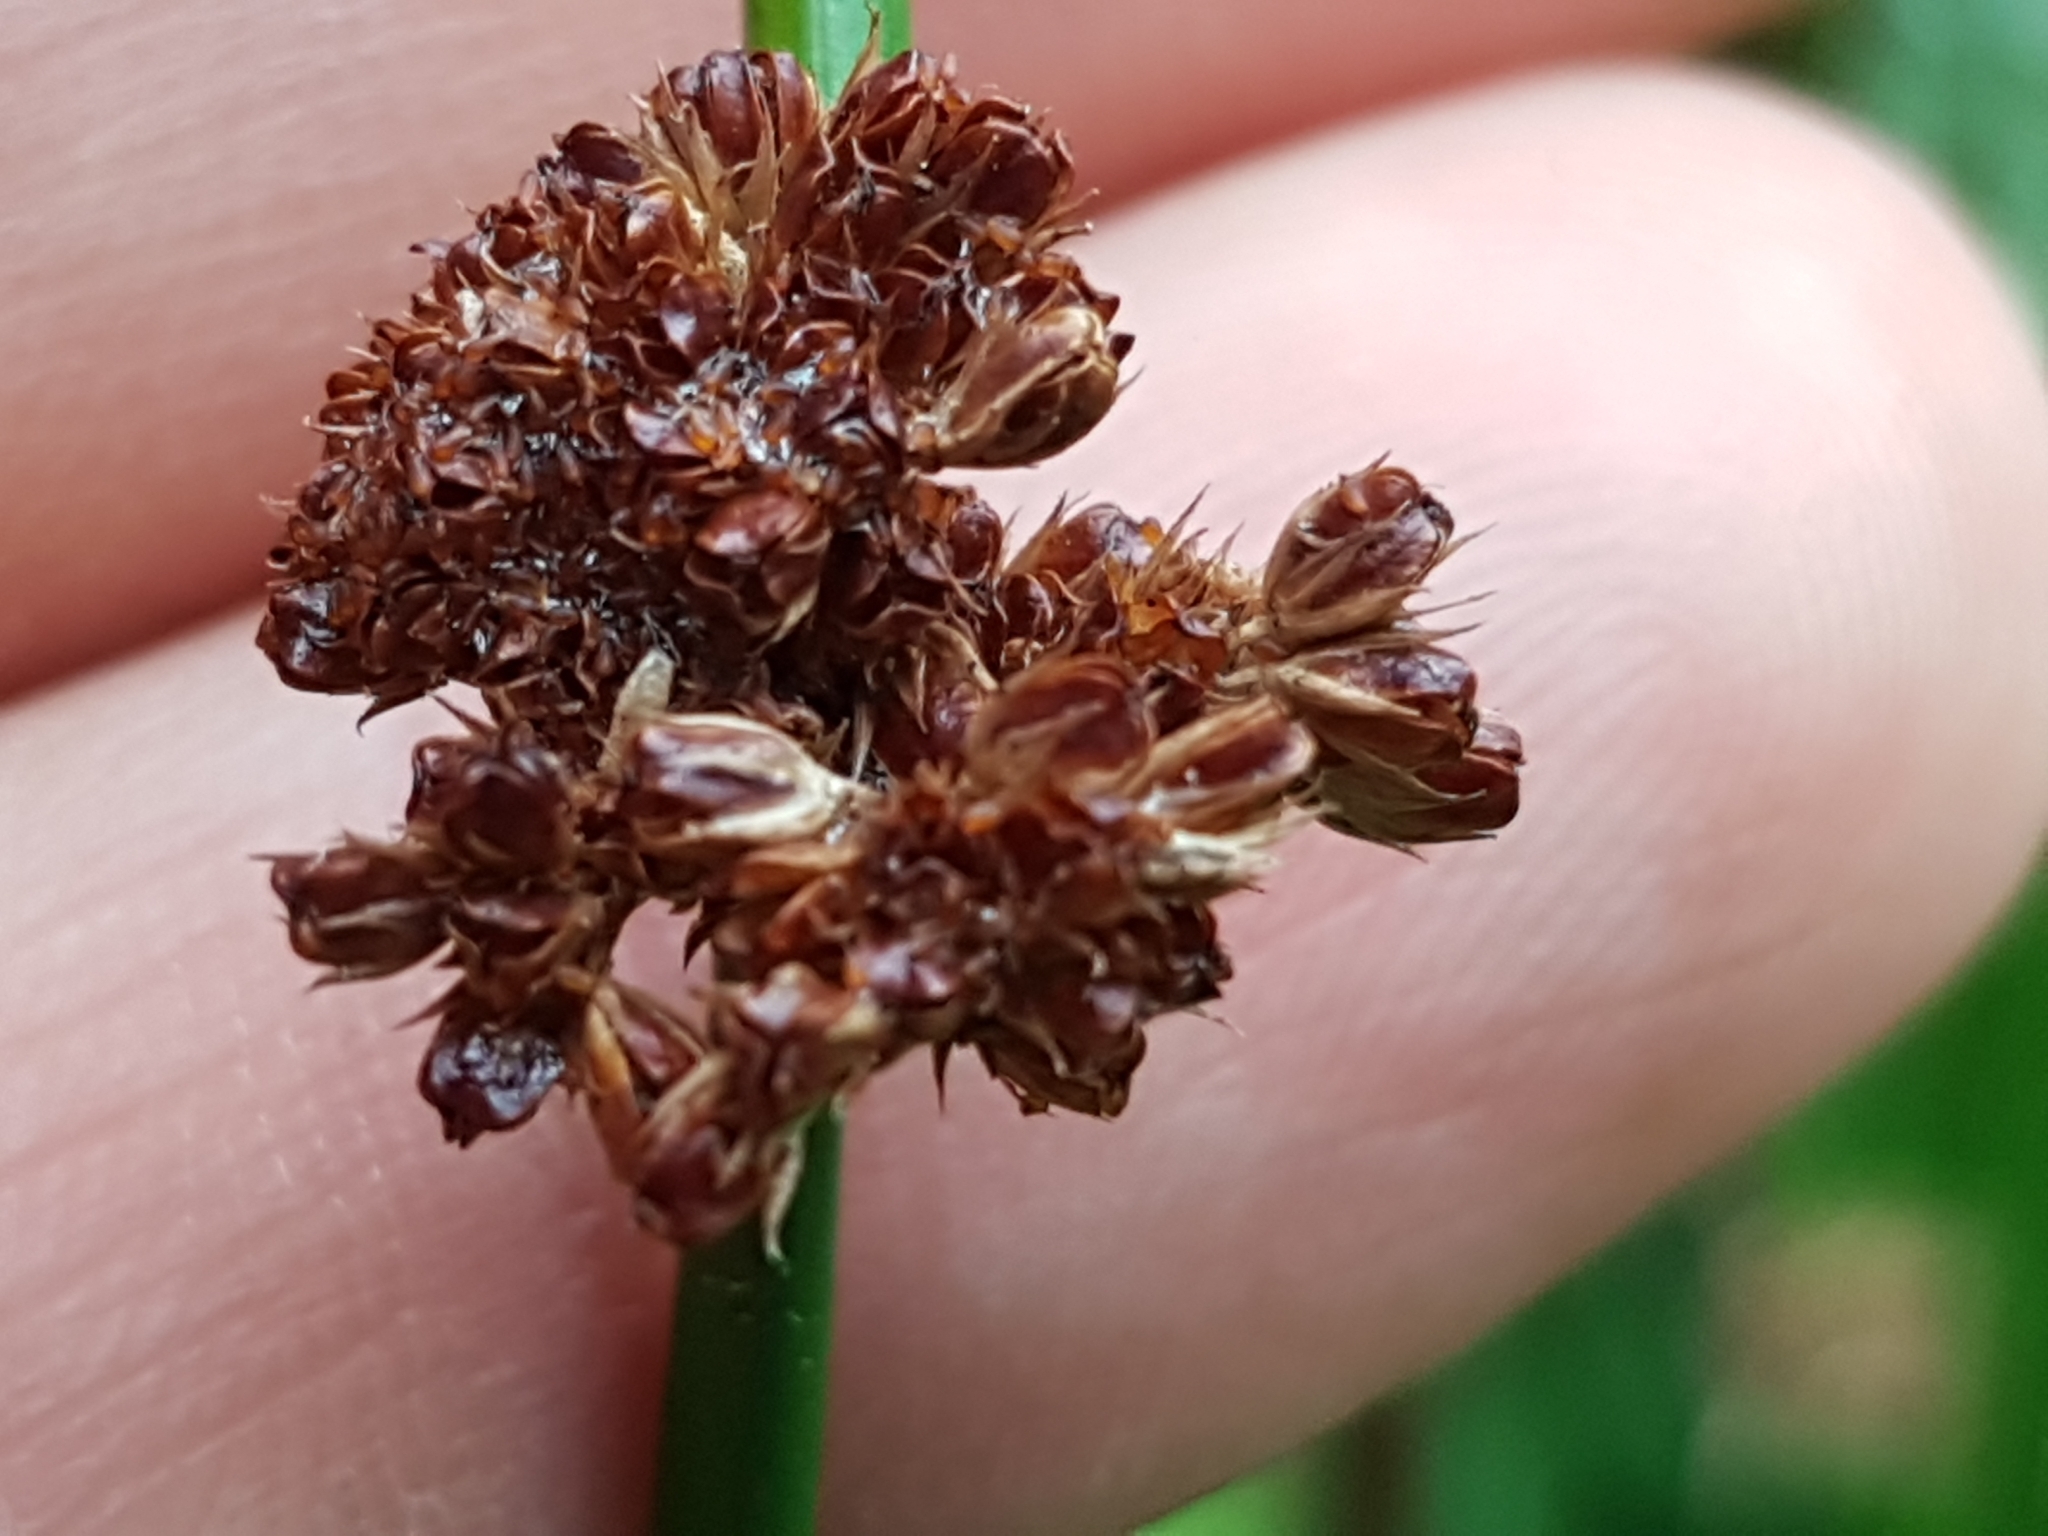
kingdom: Plantae
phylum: Tracheophyta
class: Liliopsida
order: Poales
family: Juncaceae
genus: Juncus
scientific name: Juncus effusus
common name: Soft rush
